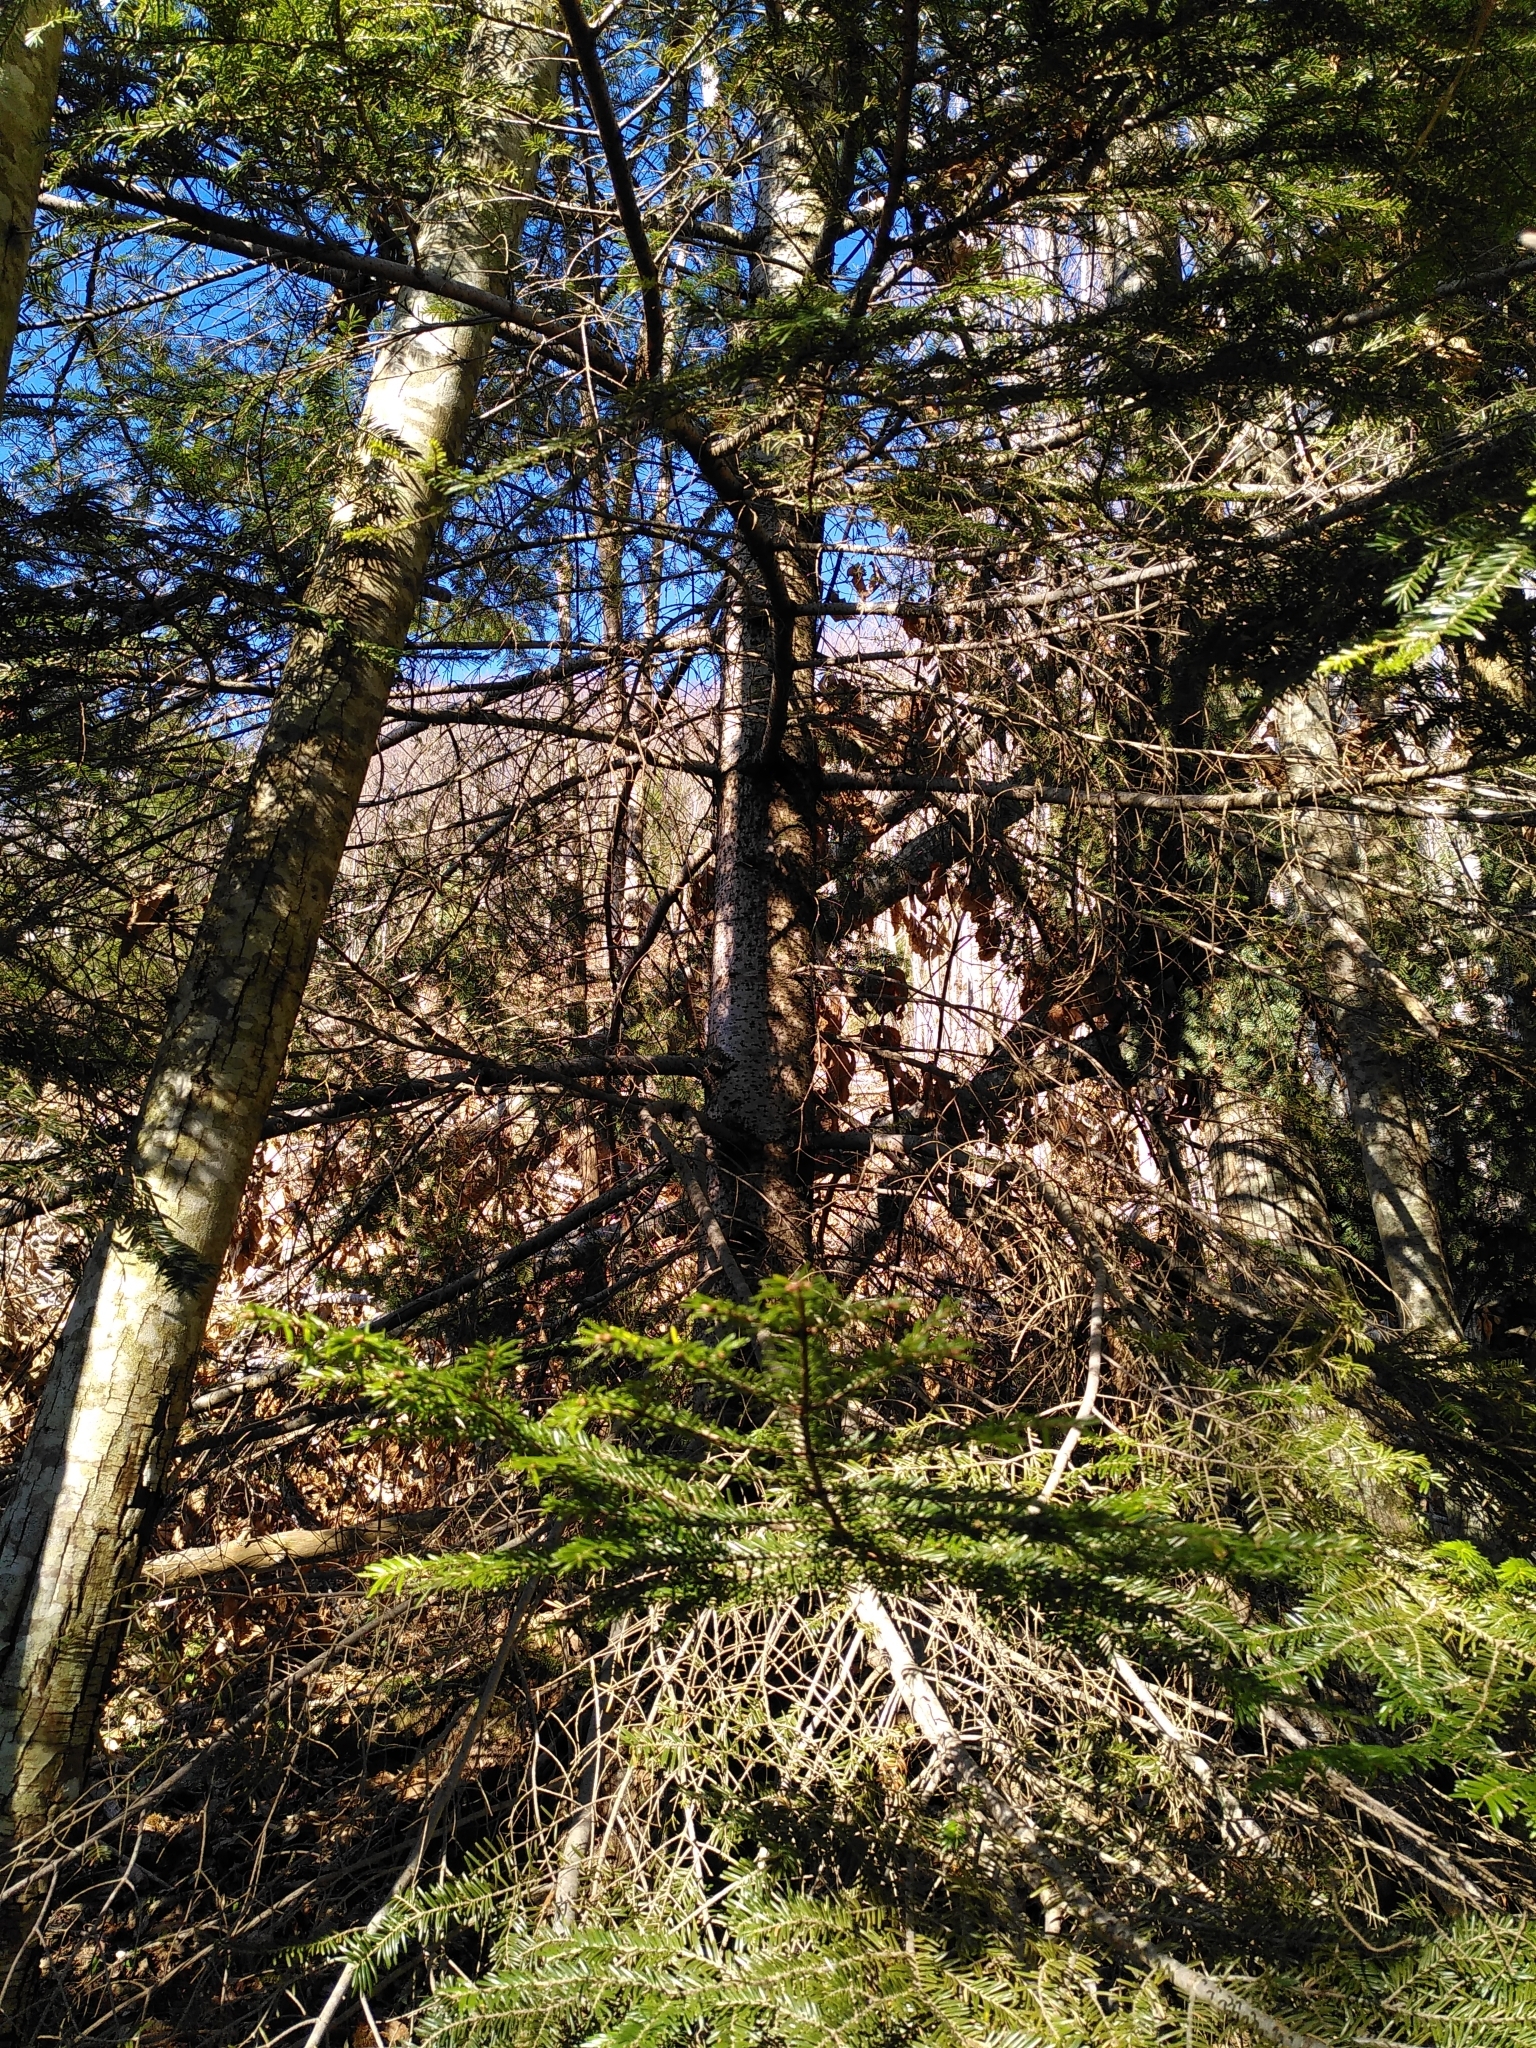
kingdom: Plantae
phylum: Tracheophyta
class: Pinopsida
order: Pinales
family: Pinaceae
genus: Abies
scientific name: Abies alba
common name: Silver fir
